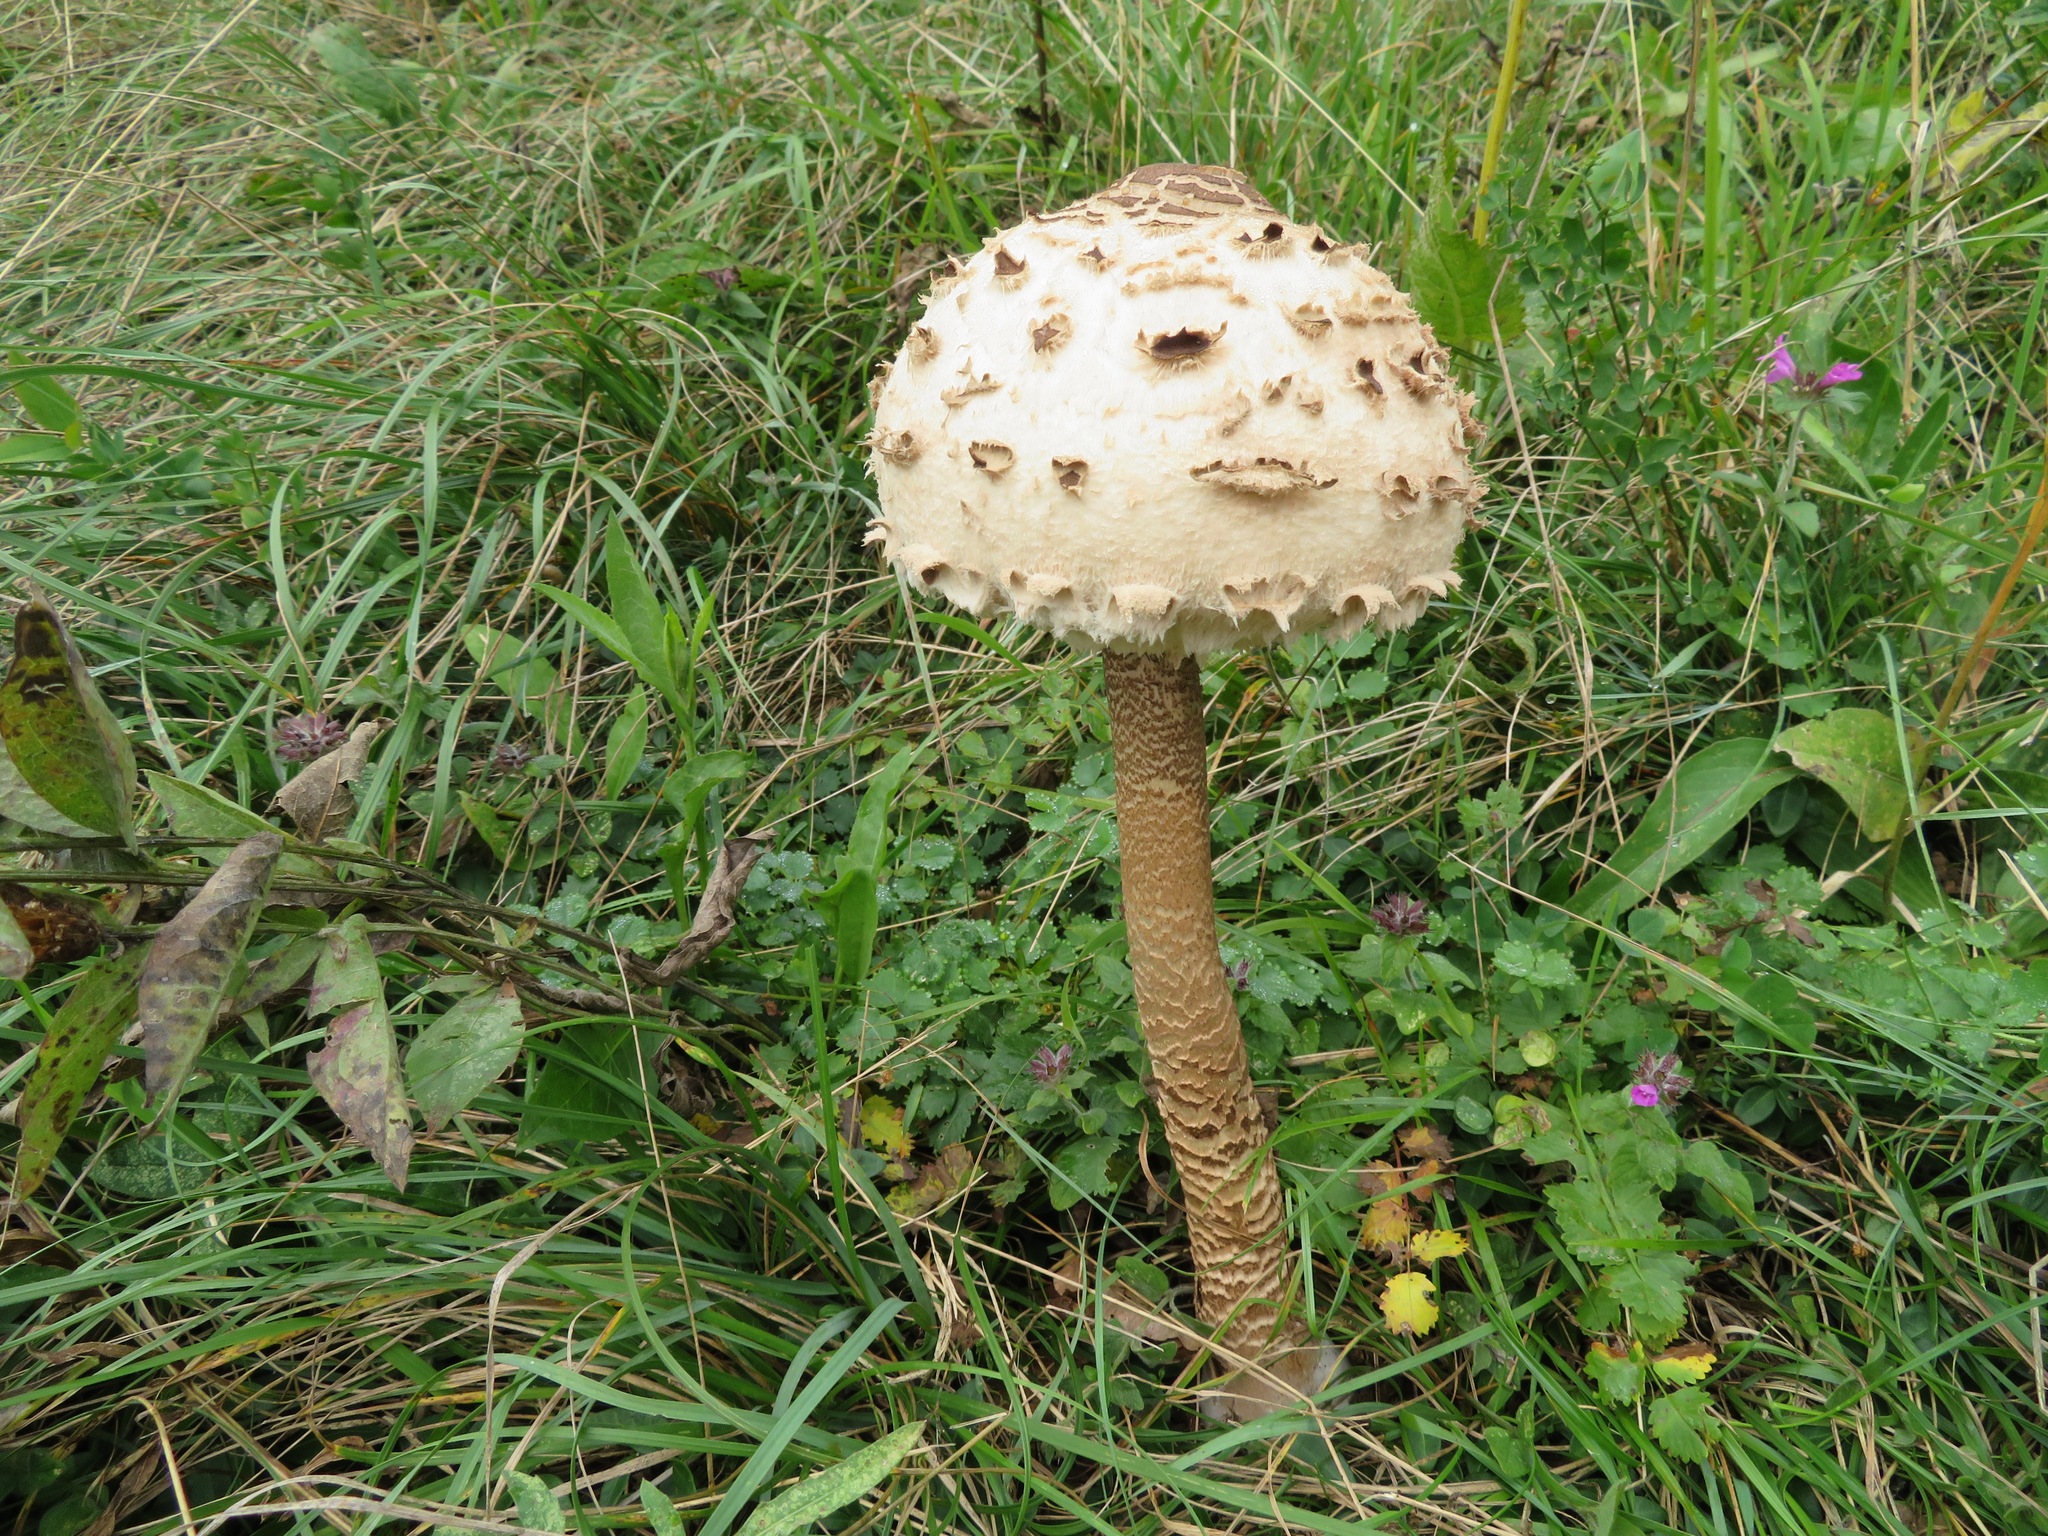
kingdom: Fungi
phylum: Basidiomycota
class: Agaricomycetes
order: Agaricales
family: Agaricaceae
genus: Macrolepiota
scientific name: Macrolepiota procera
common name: Parasol
